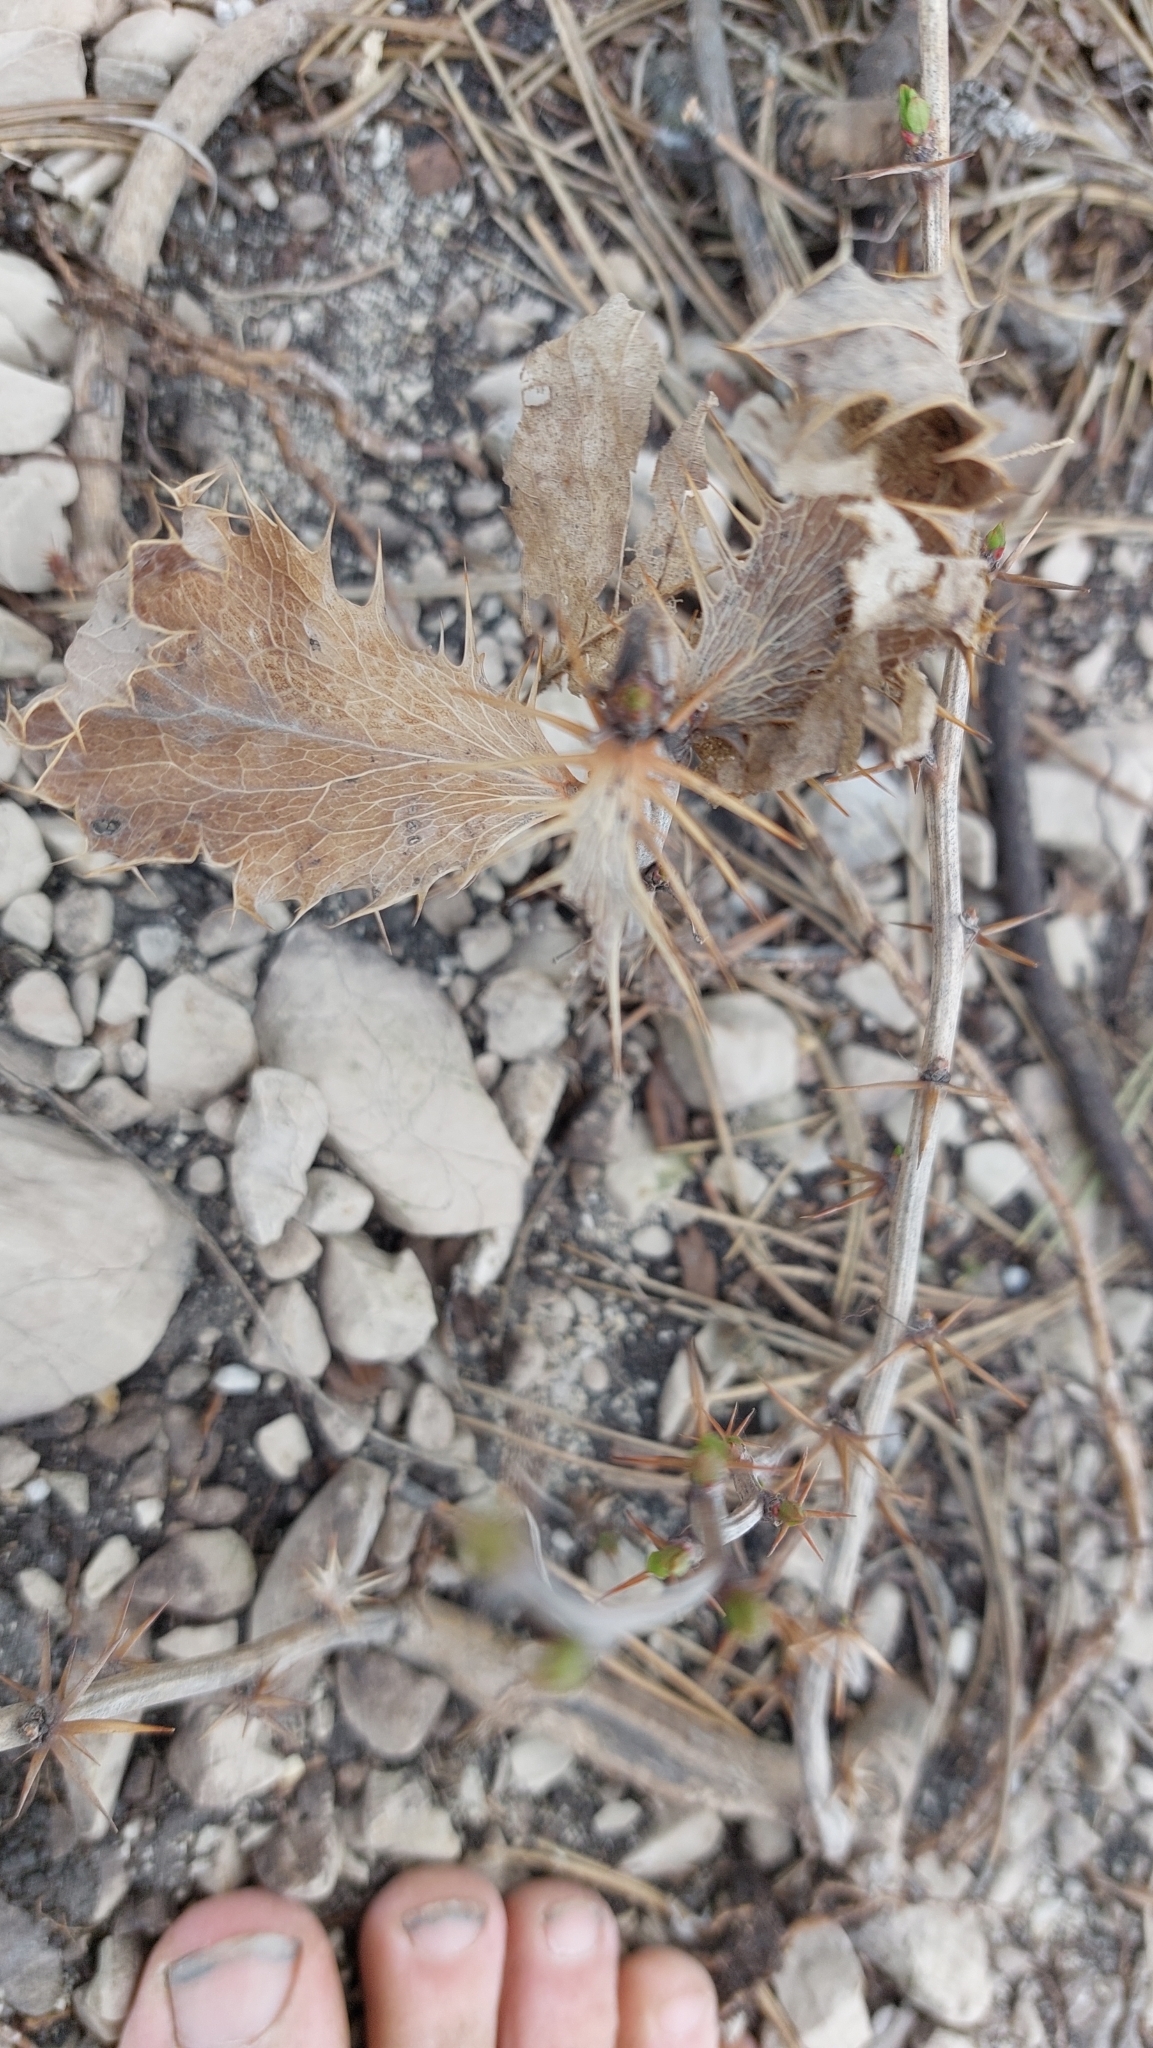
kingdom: Plantae
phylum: Tracheophyta
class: Magnoliopsida
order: Ranunculales
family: Berberidaceae
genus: Berberis
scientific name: Berberis vulgaris
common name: Barberry
